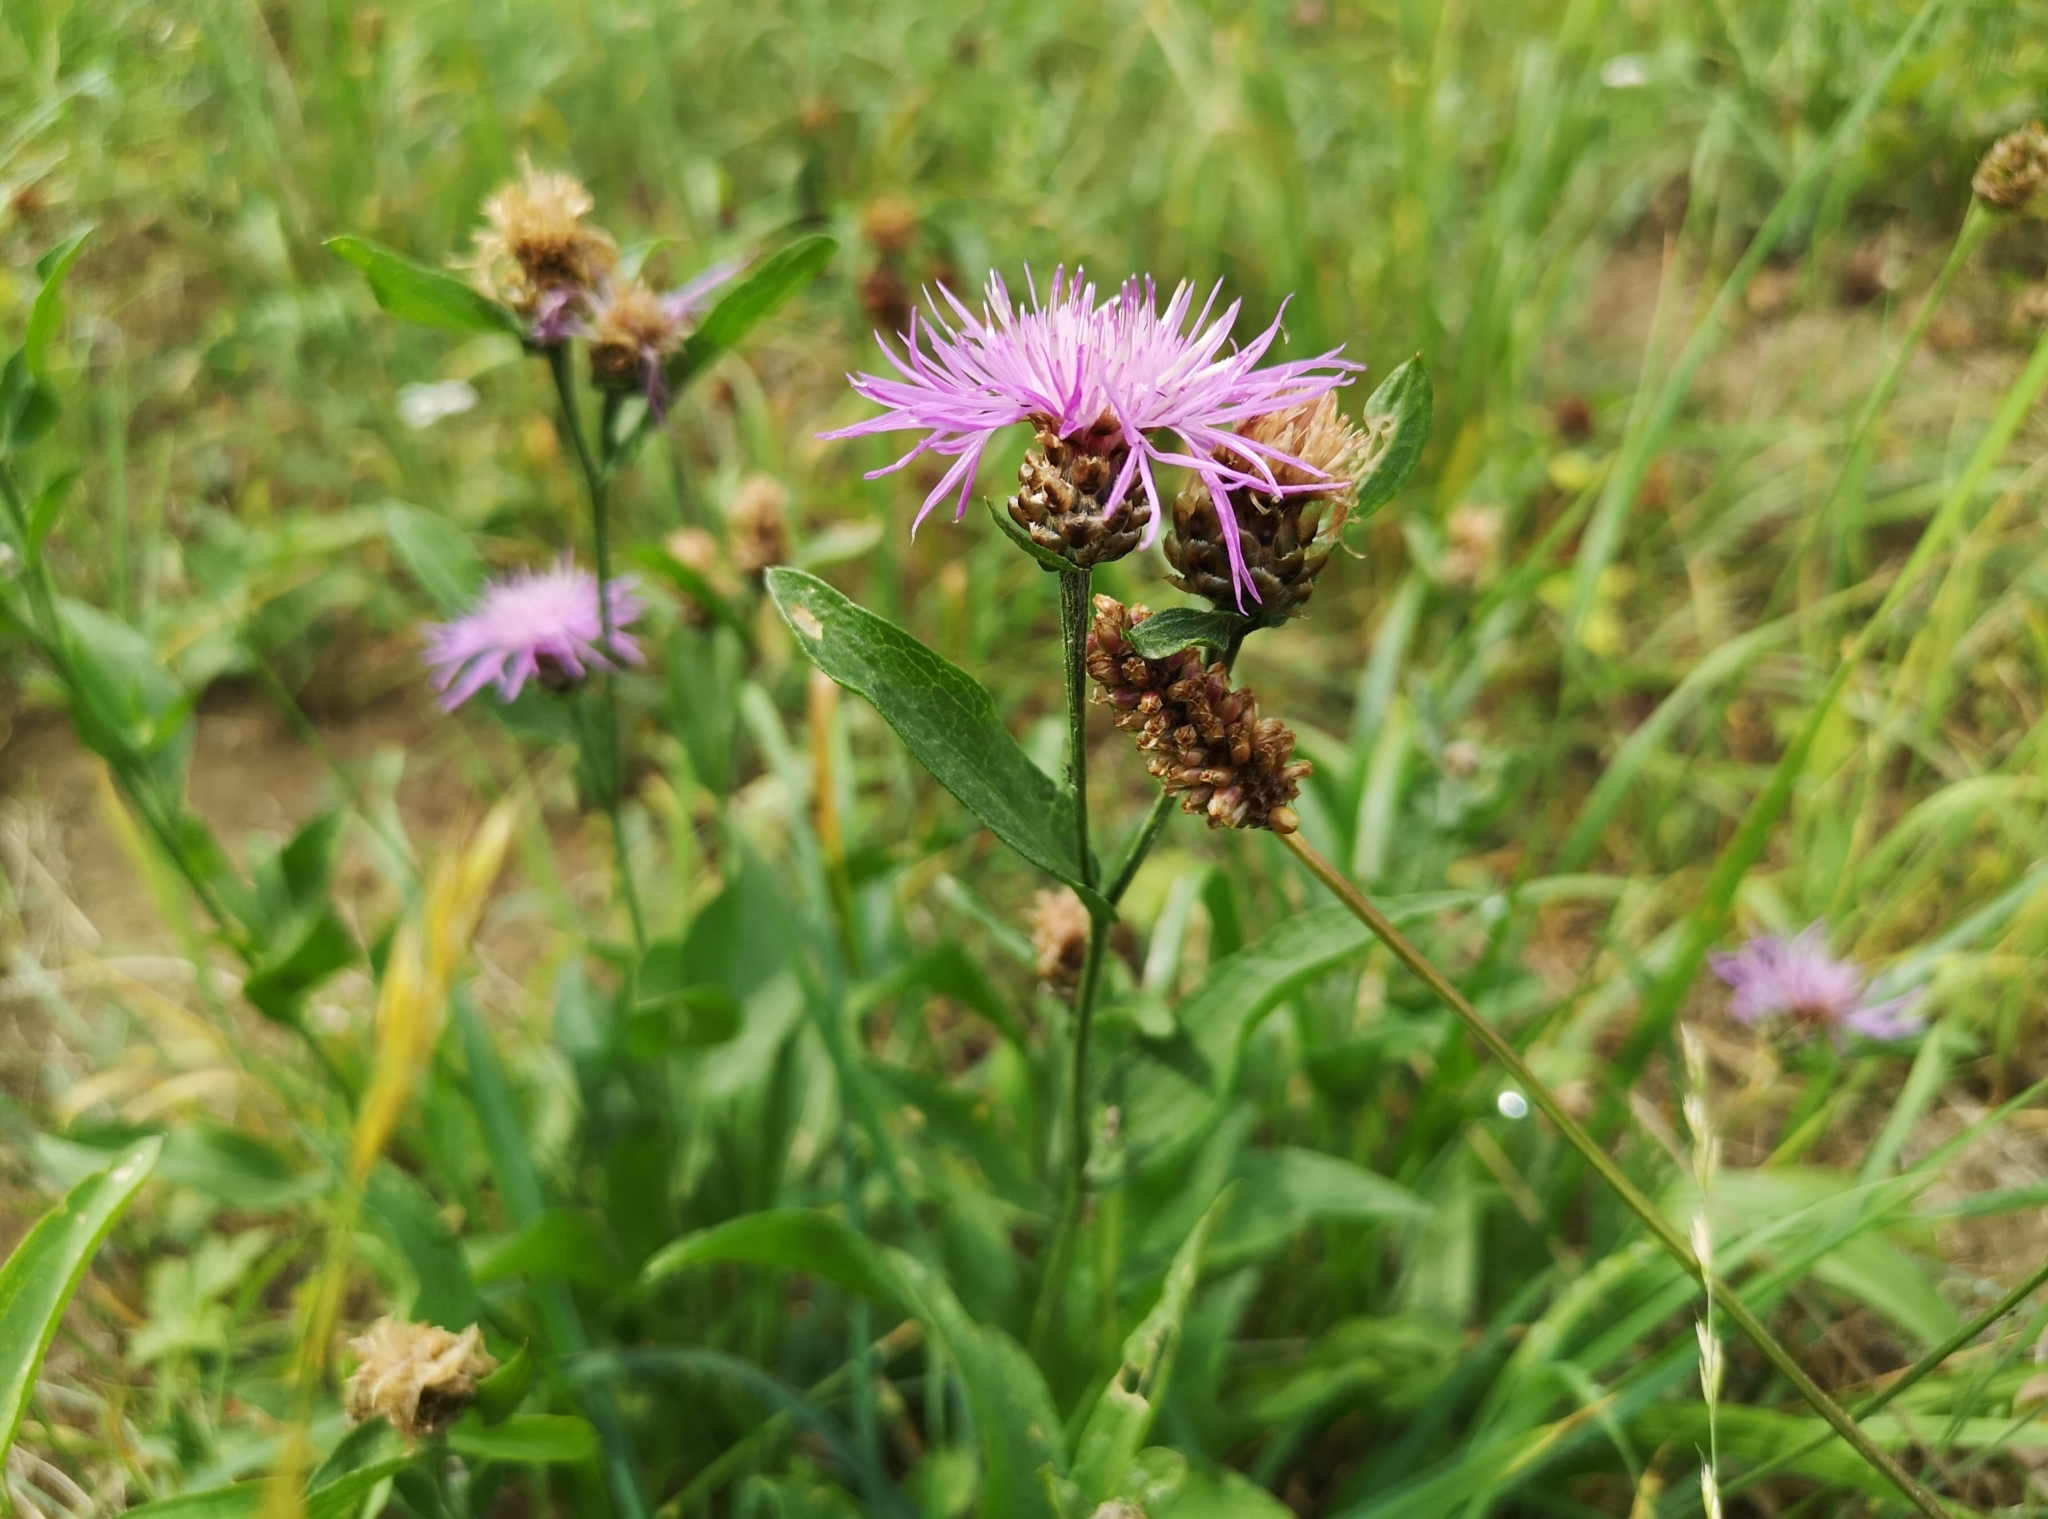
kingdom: Plantae
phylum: Tracheophyta
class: Magnoliopsida
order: Asterales
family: Asteraceae
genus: Centaurea
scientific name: Centaurea jacea
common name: Brown knapweed
